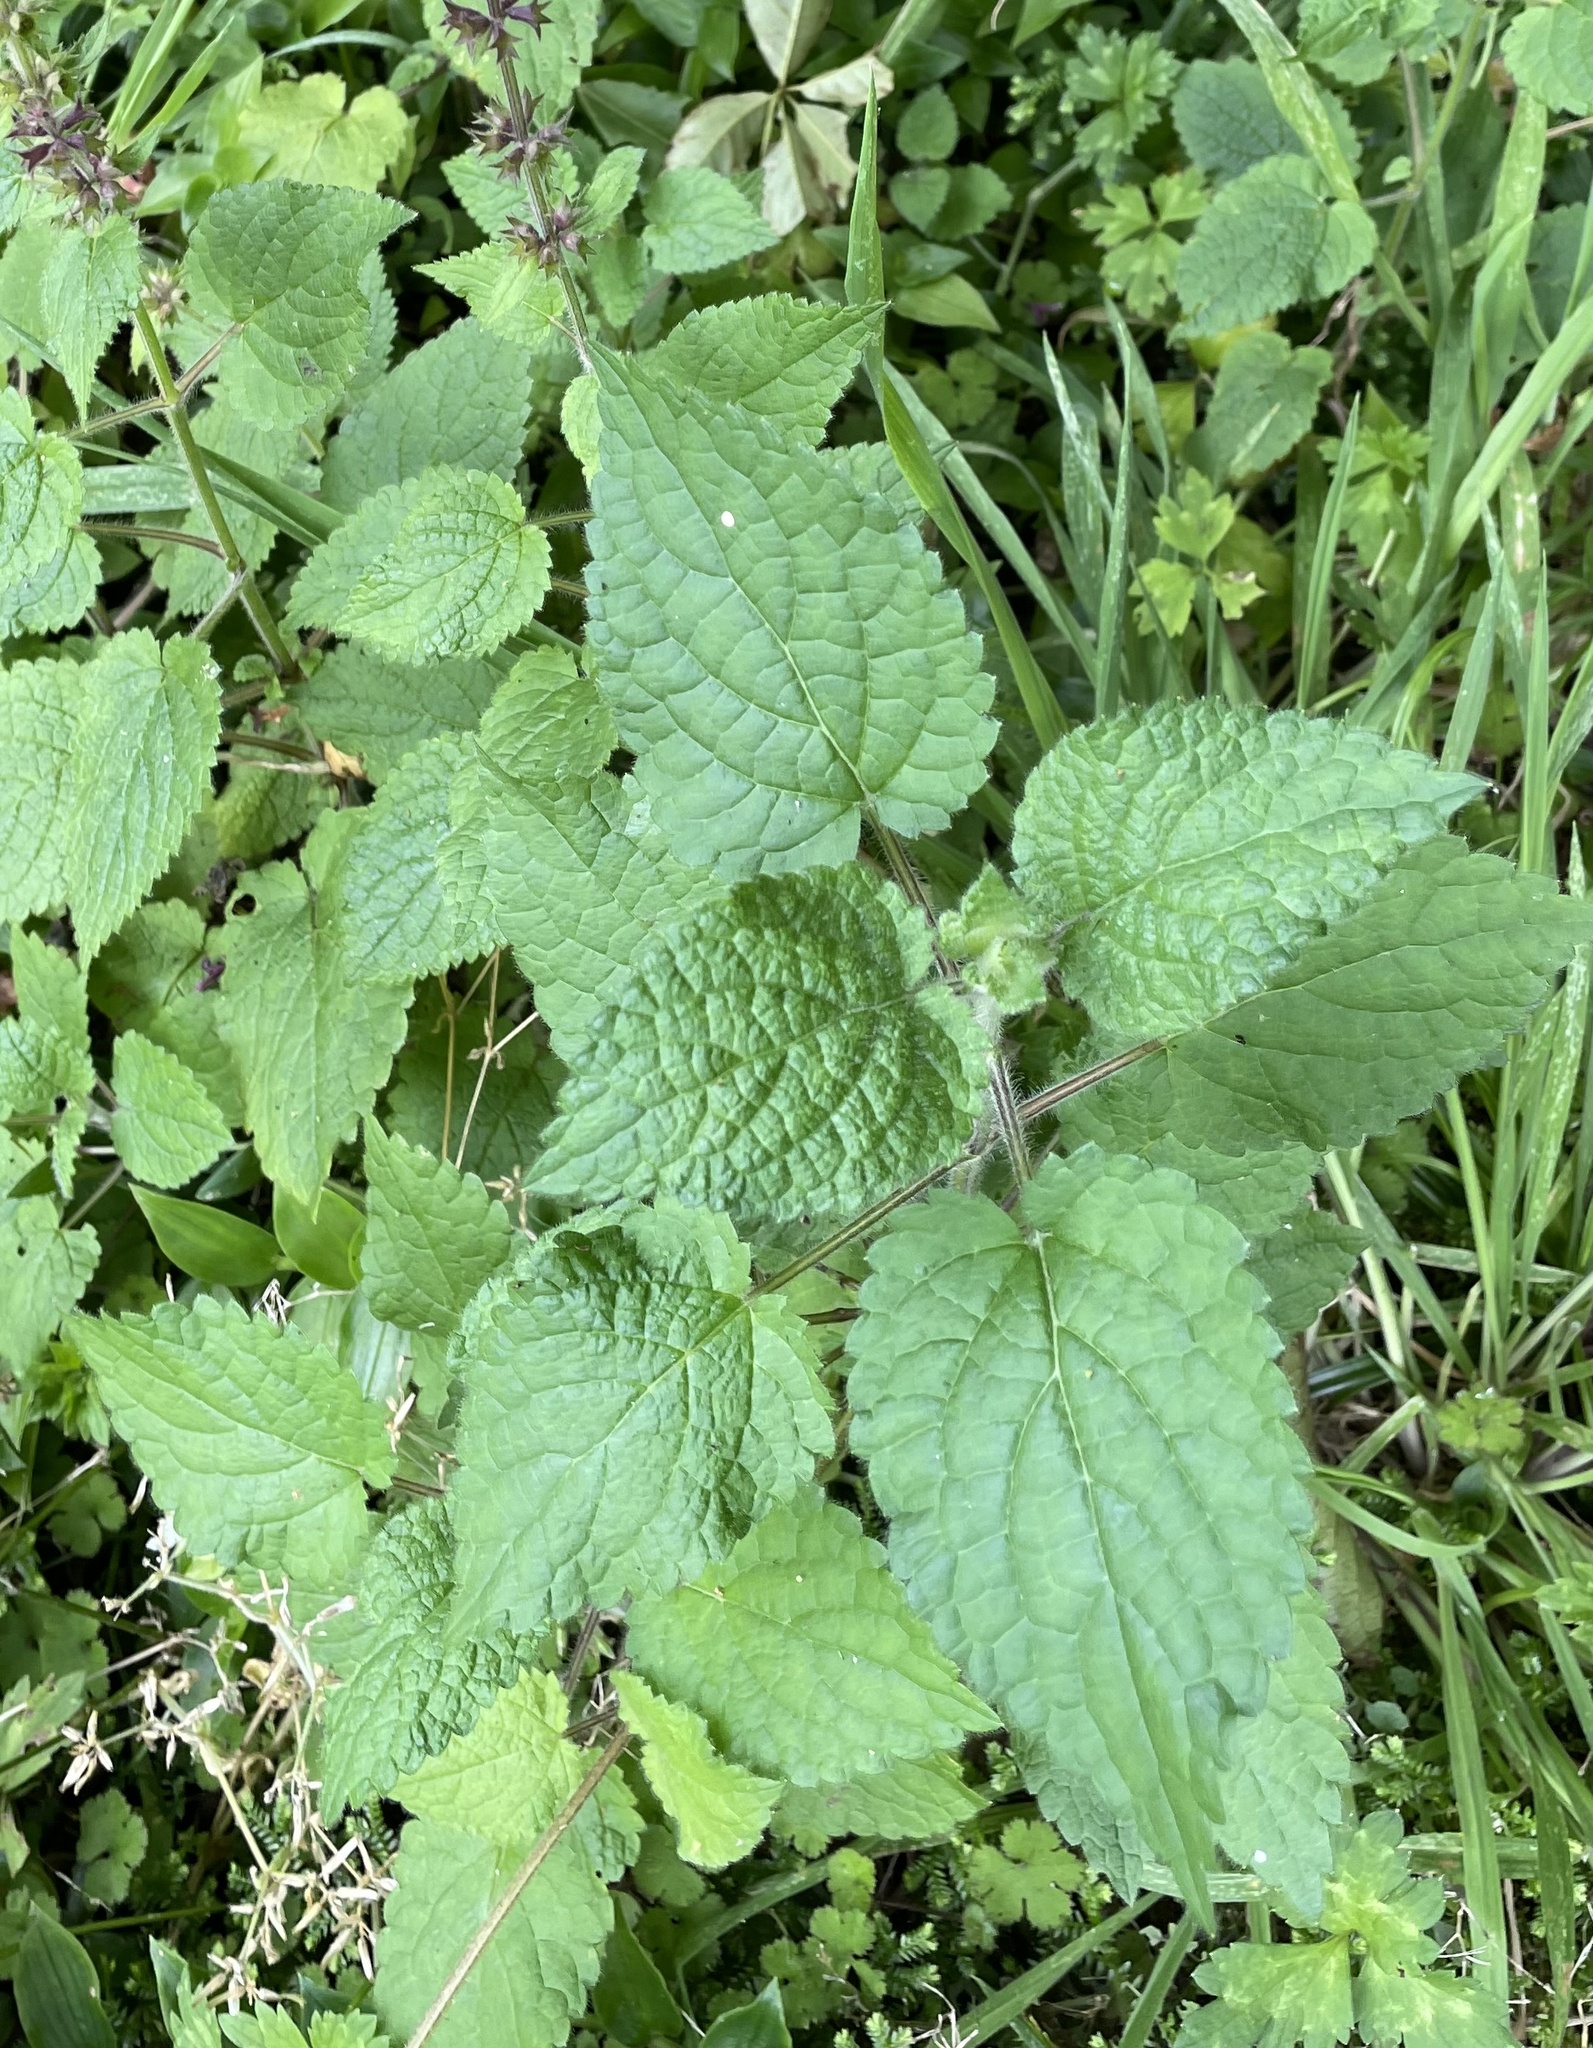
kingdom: Plantae
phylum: Tracheophyta
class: Magnoliopsida
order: Lamiales
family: Lamiaceae
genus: Stachys
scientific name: Stachys sylvatica
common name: Hedge woundwort
